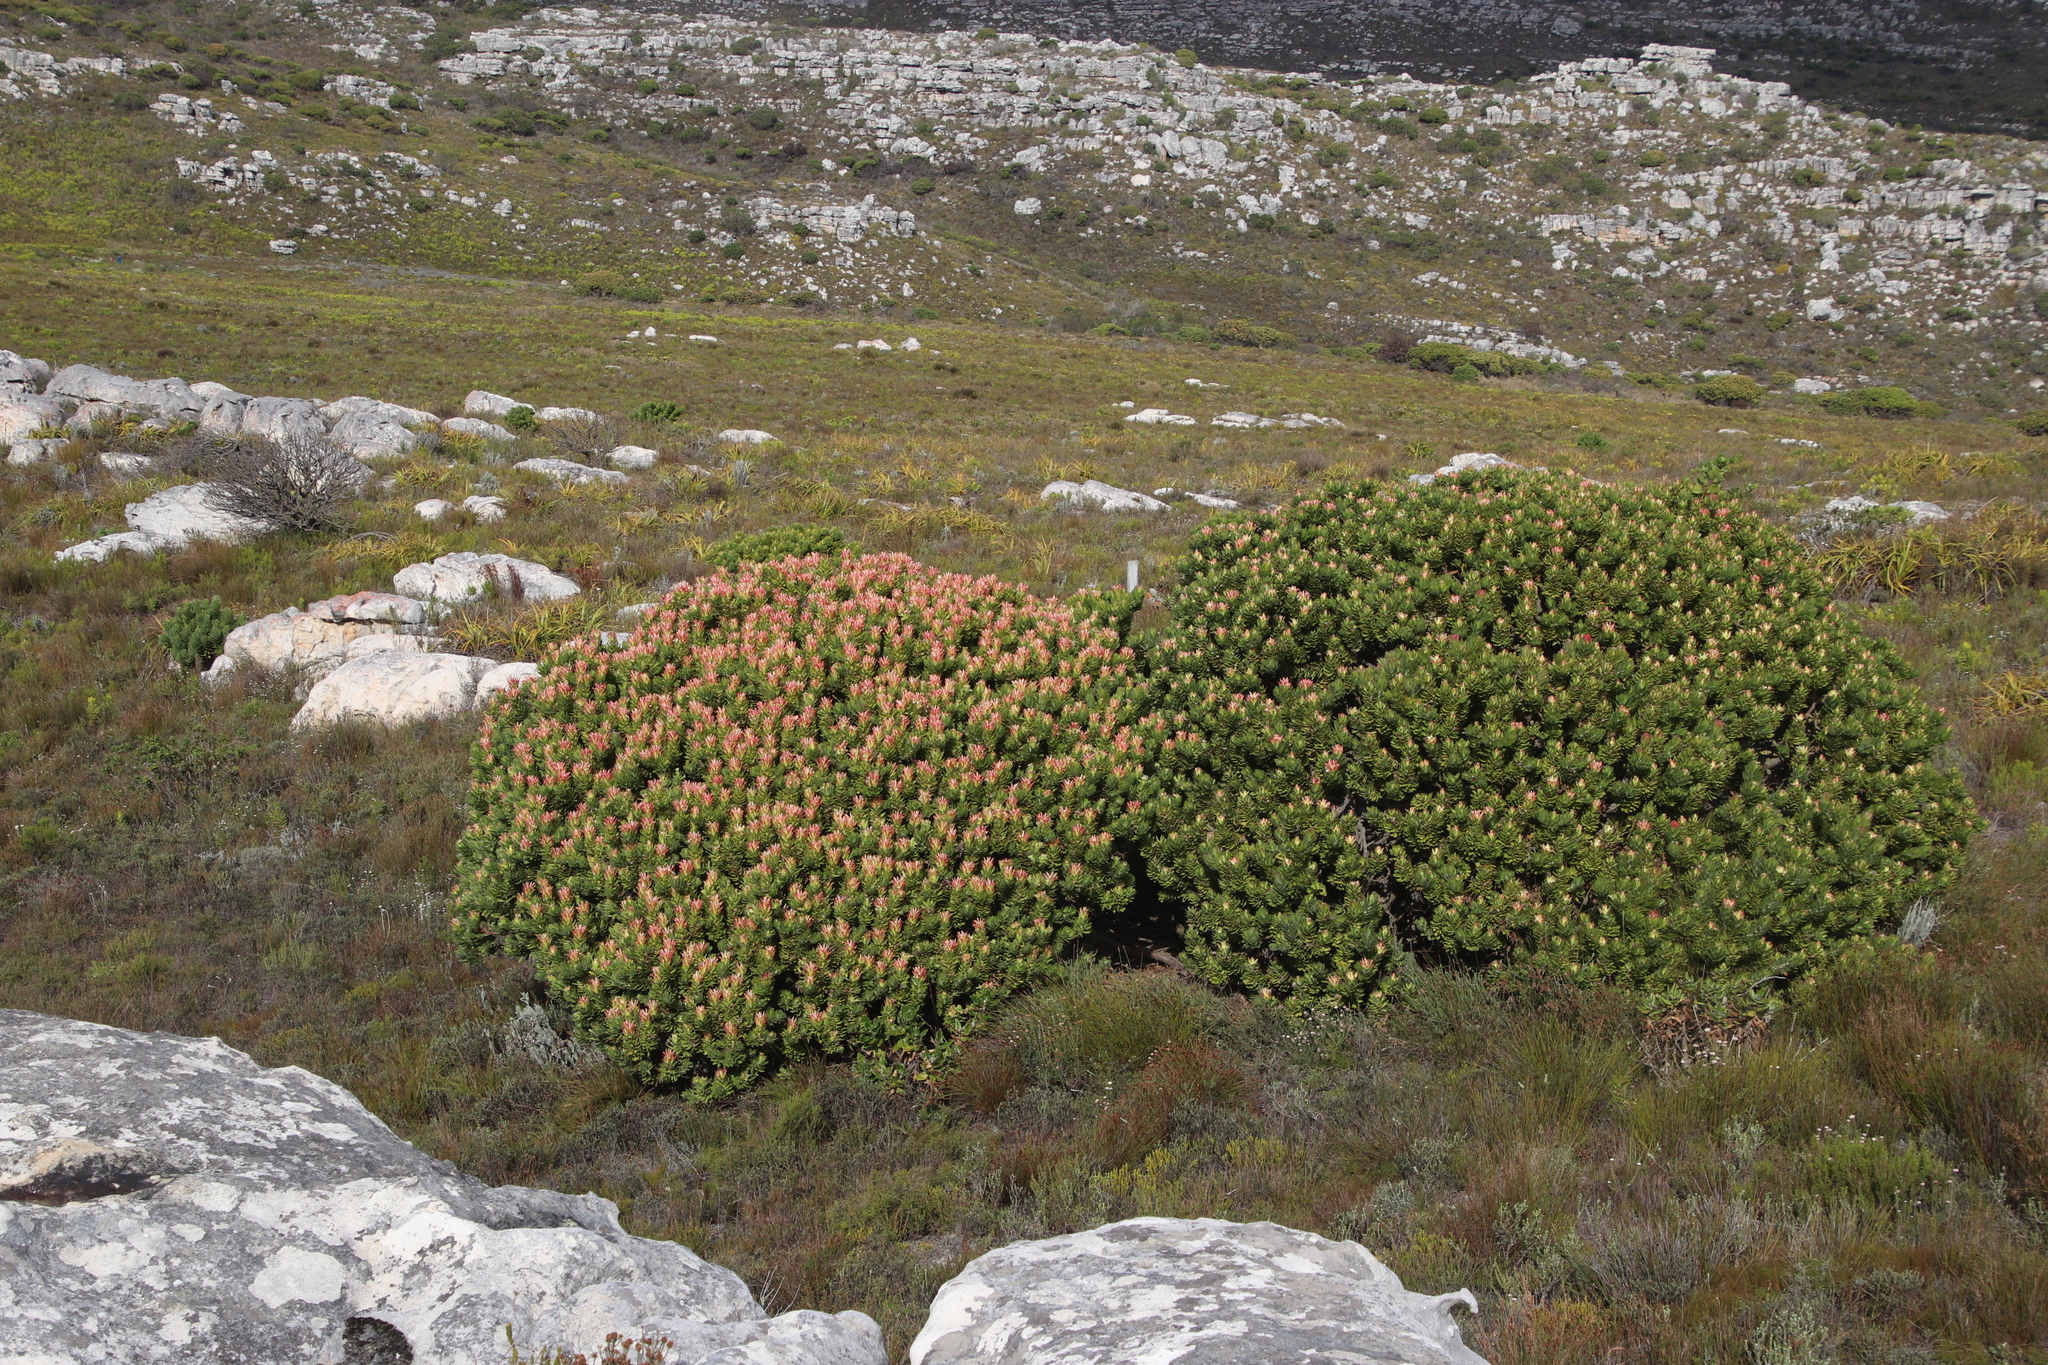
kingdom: Plantae
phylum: Tracheophyta
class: Magnoliopsida
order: Proteales
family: Proteaceae
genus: Mimetes
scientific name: Mimetes fimbriifolius
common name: Fringed bottlebrush
